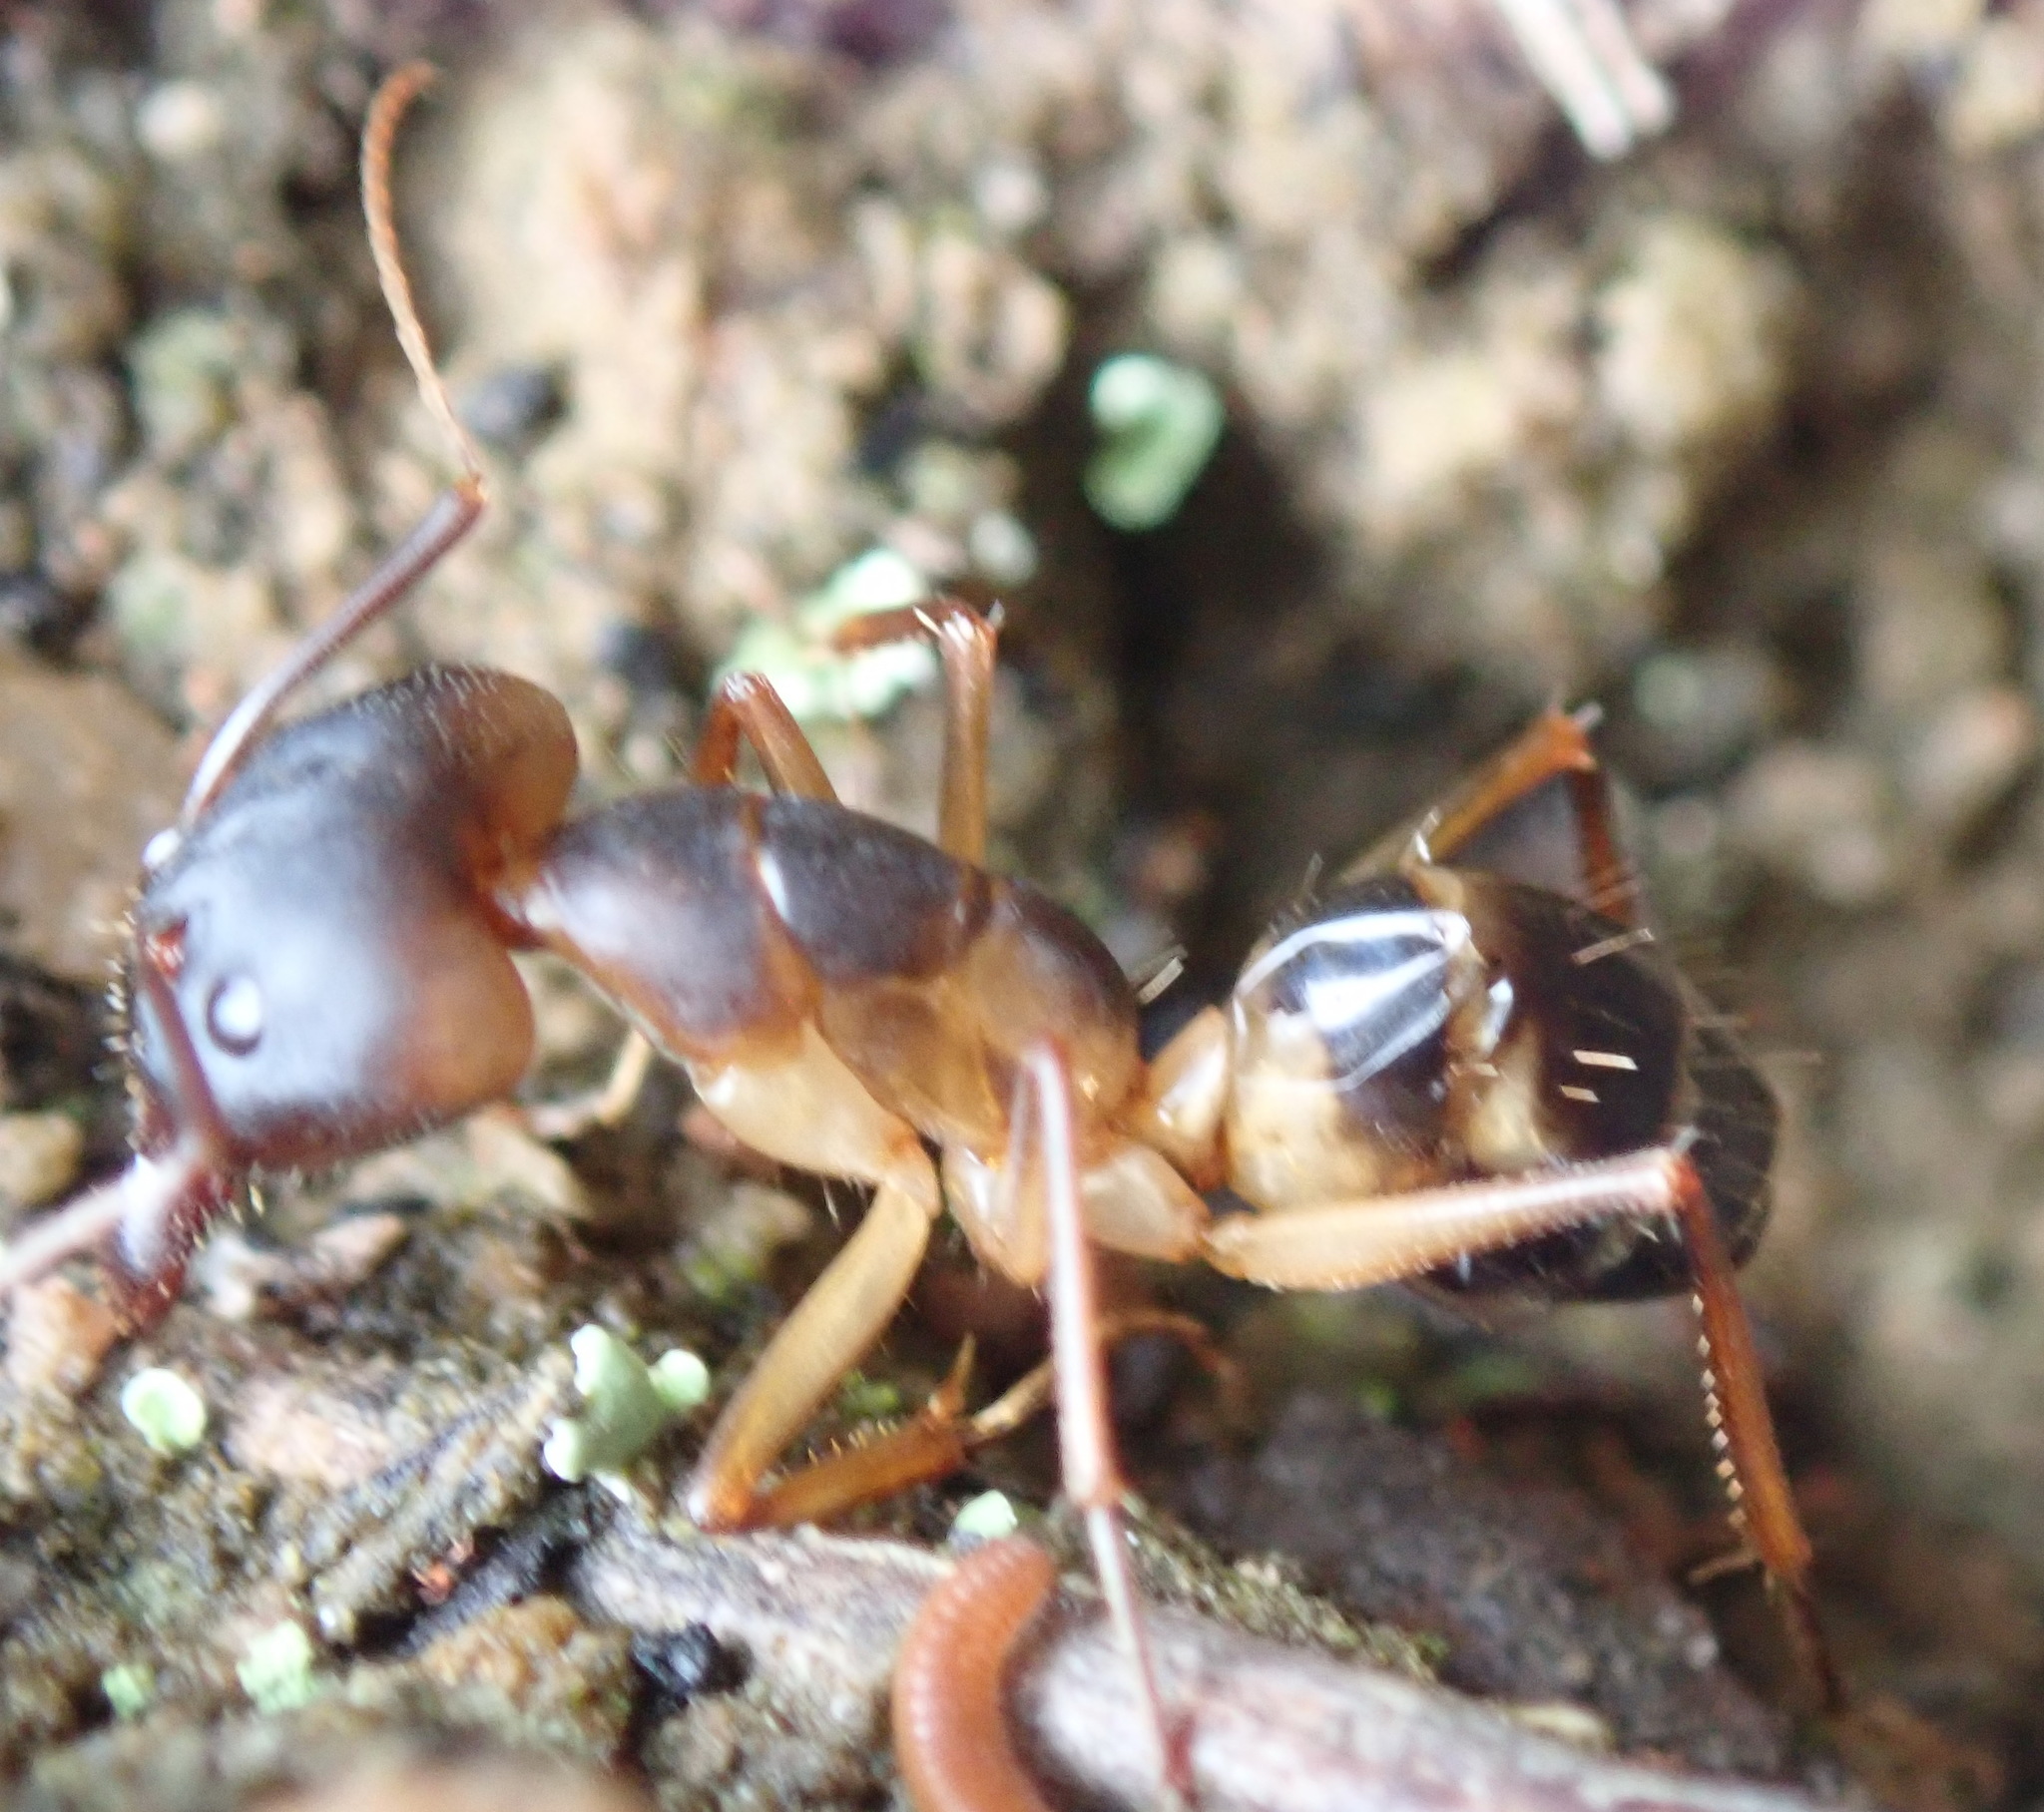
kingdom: Animalia
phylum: Arthropoda
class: Insecta
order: Hymenoptera
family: Formicidae
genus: Camponotus
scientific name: Camponotus maculatus
